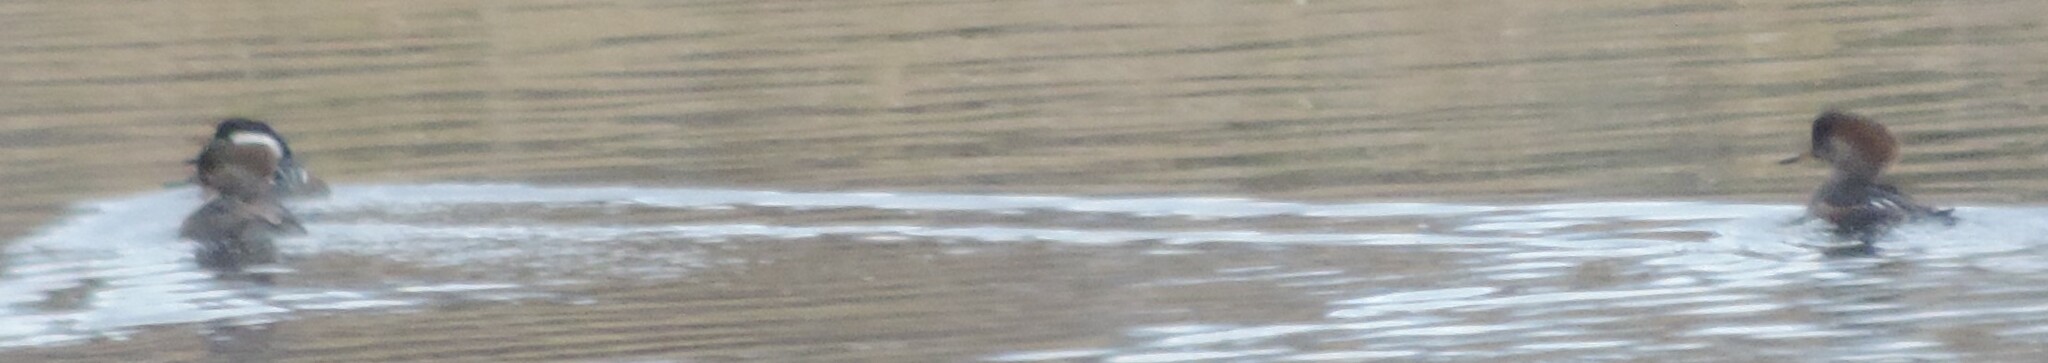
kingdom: Animalia
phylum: Chordata
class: Aves
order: Anseriformes
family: Anatidae
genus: Lophodytes
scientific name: Lophodytes cucullatus
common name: Hooded merganser
